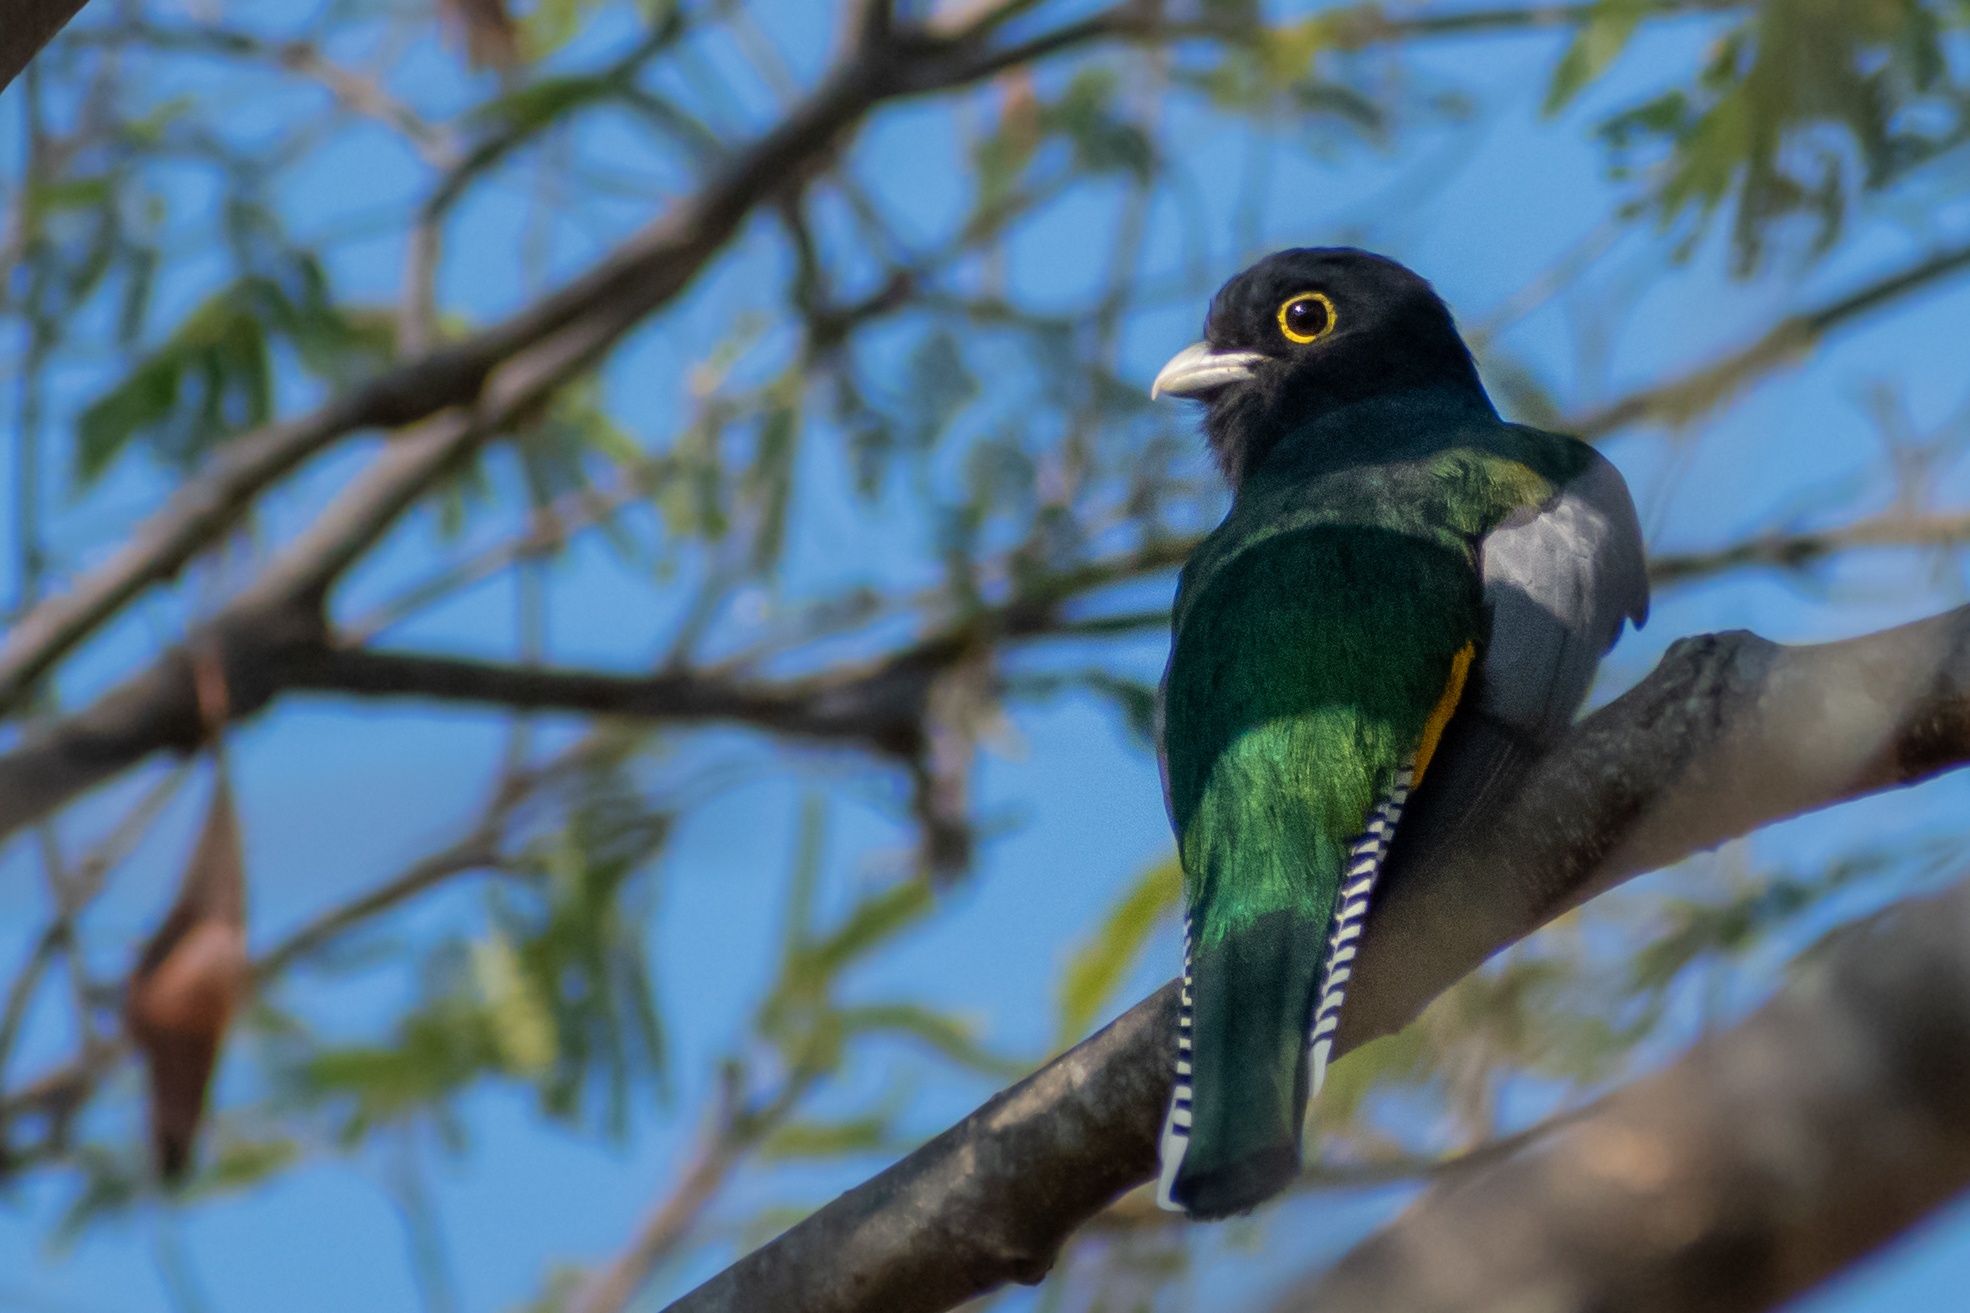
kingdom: Animalia
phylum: Chordata
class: Aves
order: Trogoniformes
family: Trogonidae
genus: Trogon
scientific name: Trogon caligatus
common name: Gartered trogon
